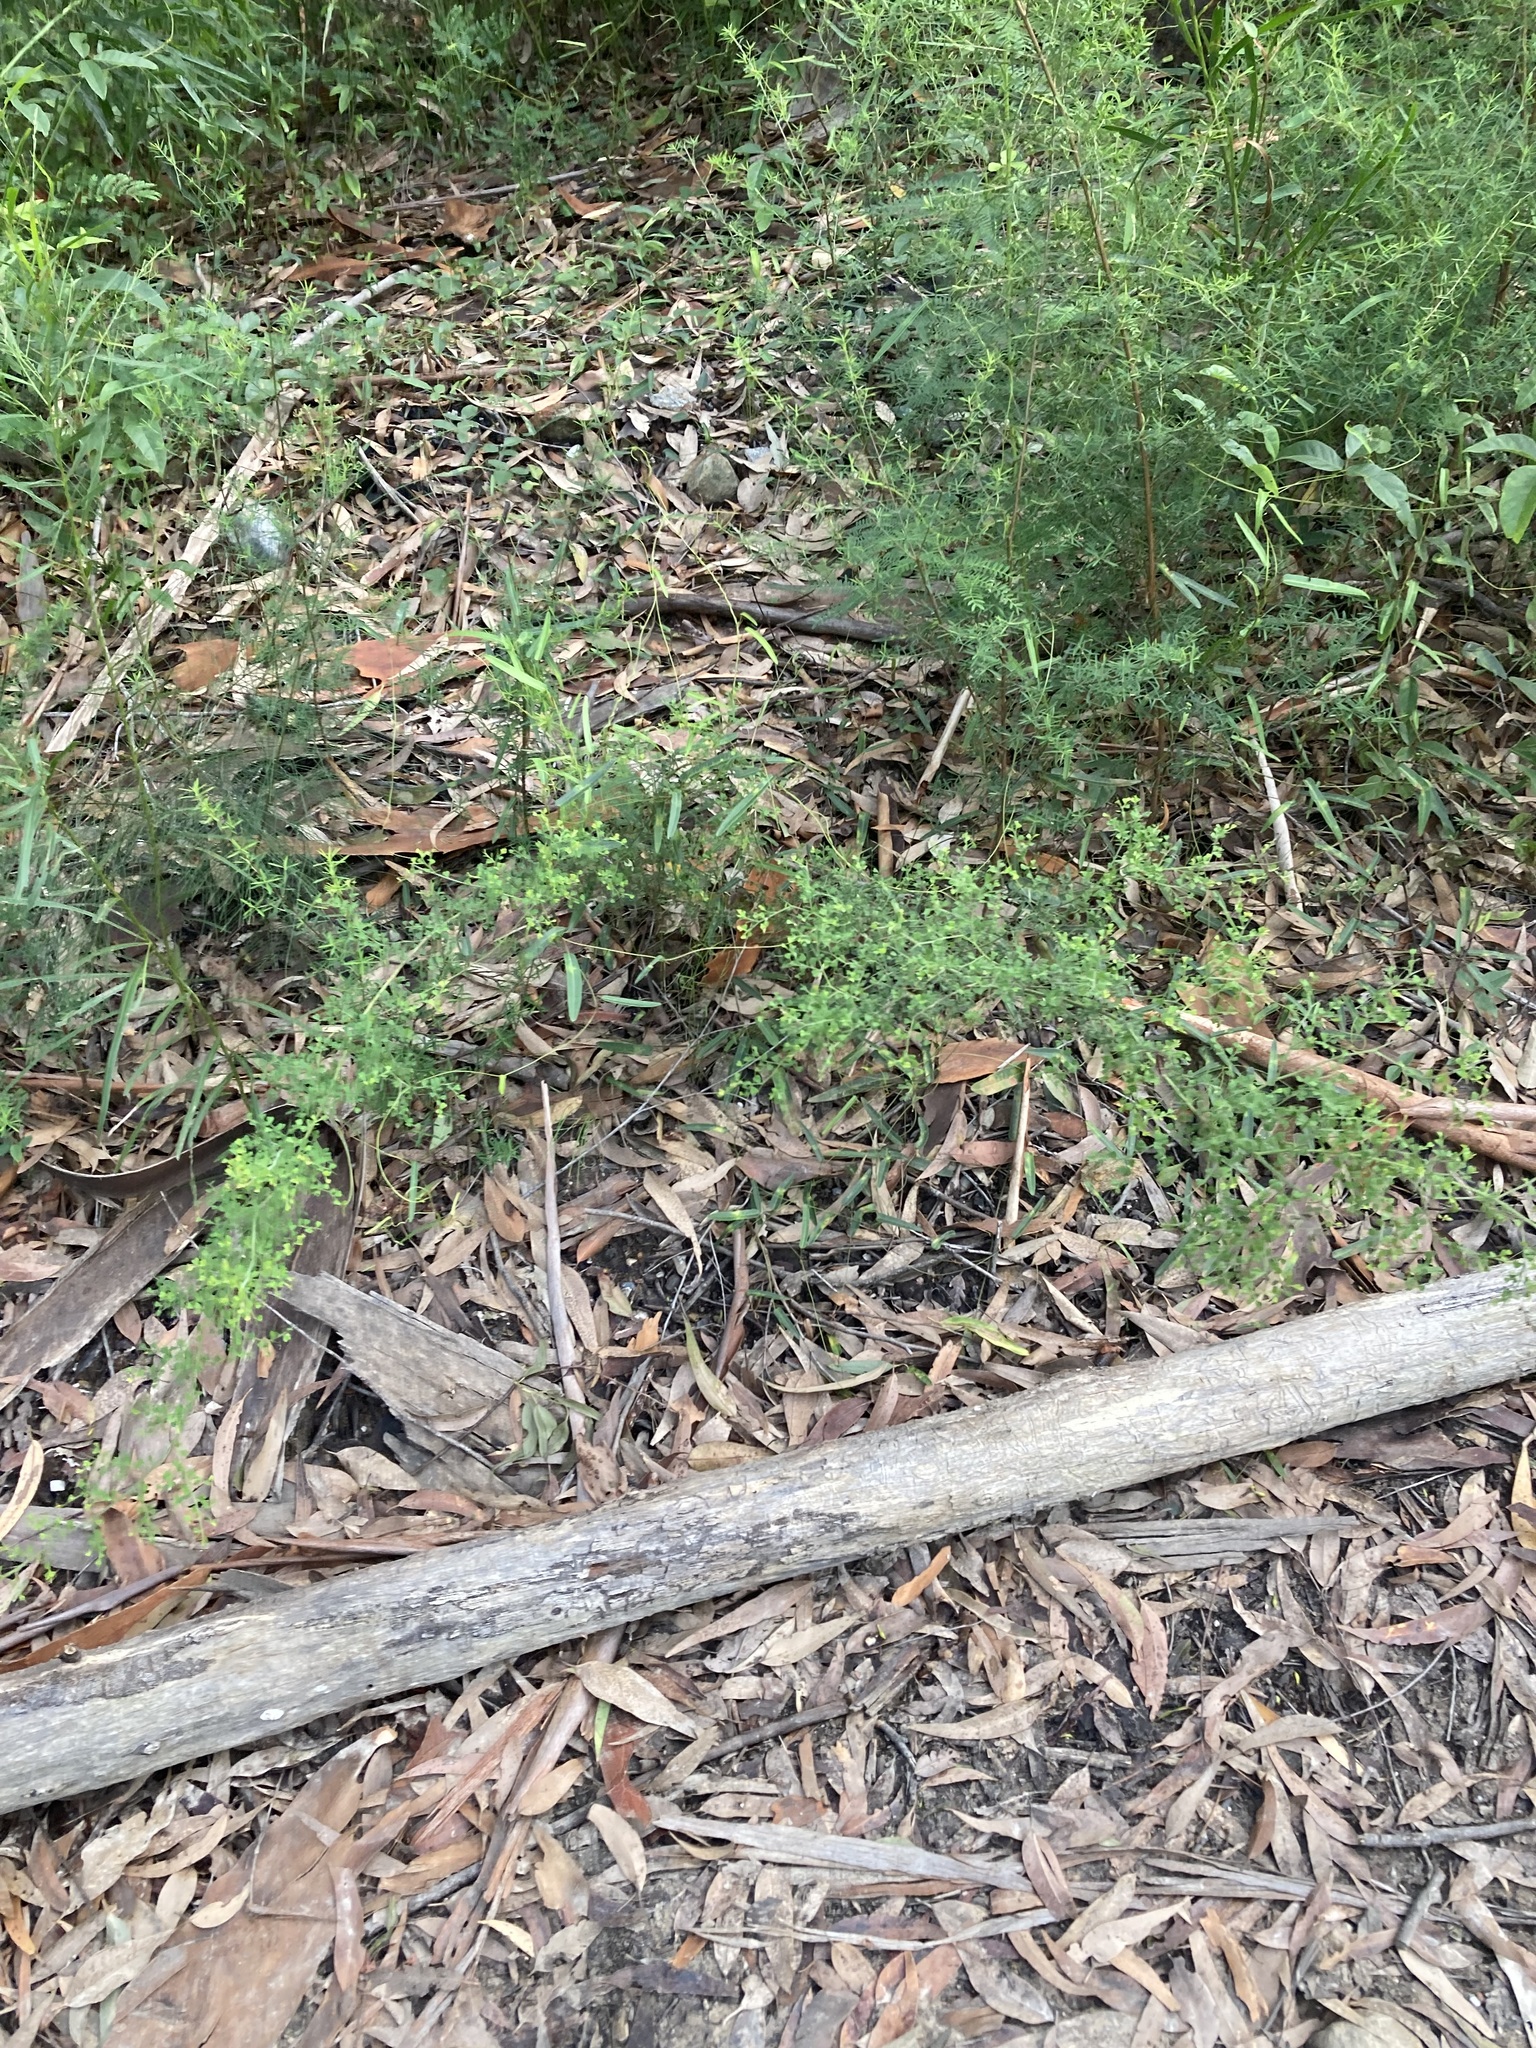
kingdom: Plantae
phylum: Tracheophyta
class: Magnoliopsida
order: Fabales
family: Fabaceae
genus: Bossiaea
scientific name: Bossiaea obcordata
